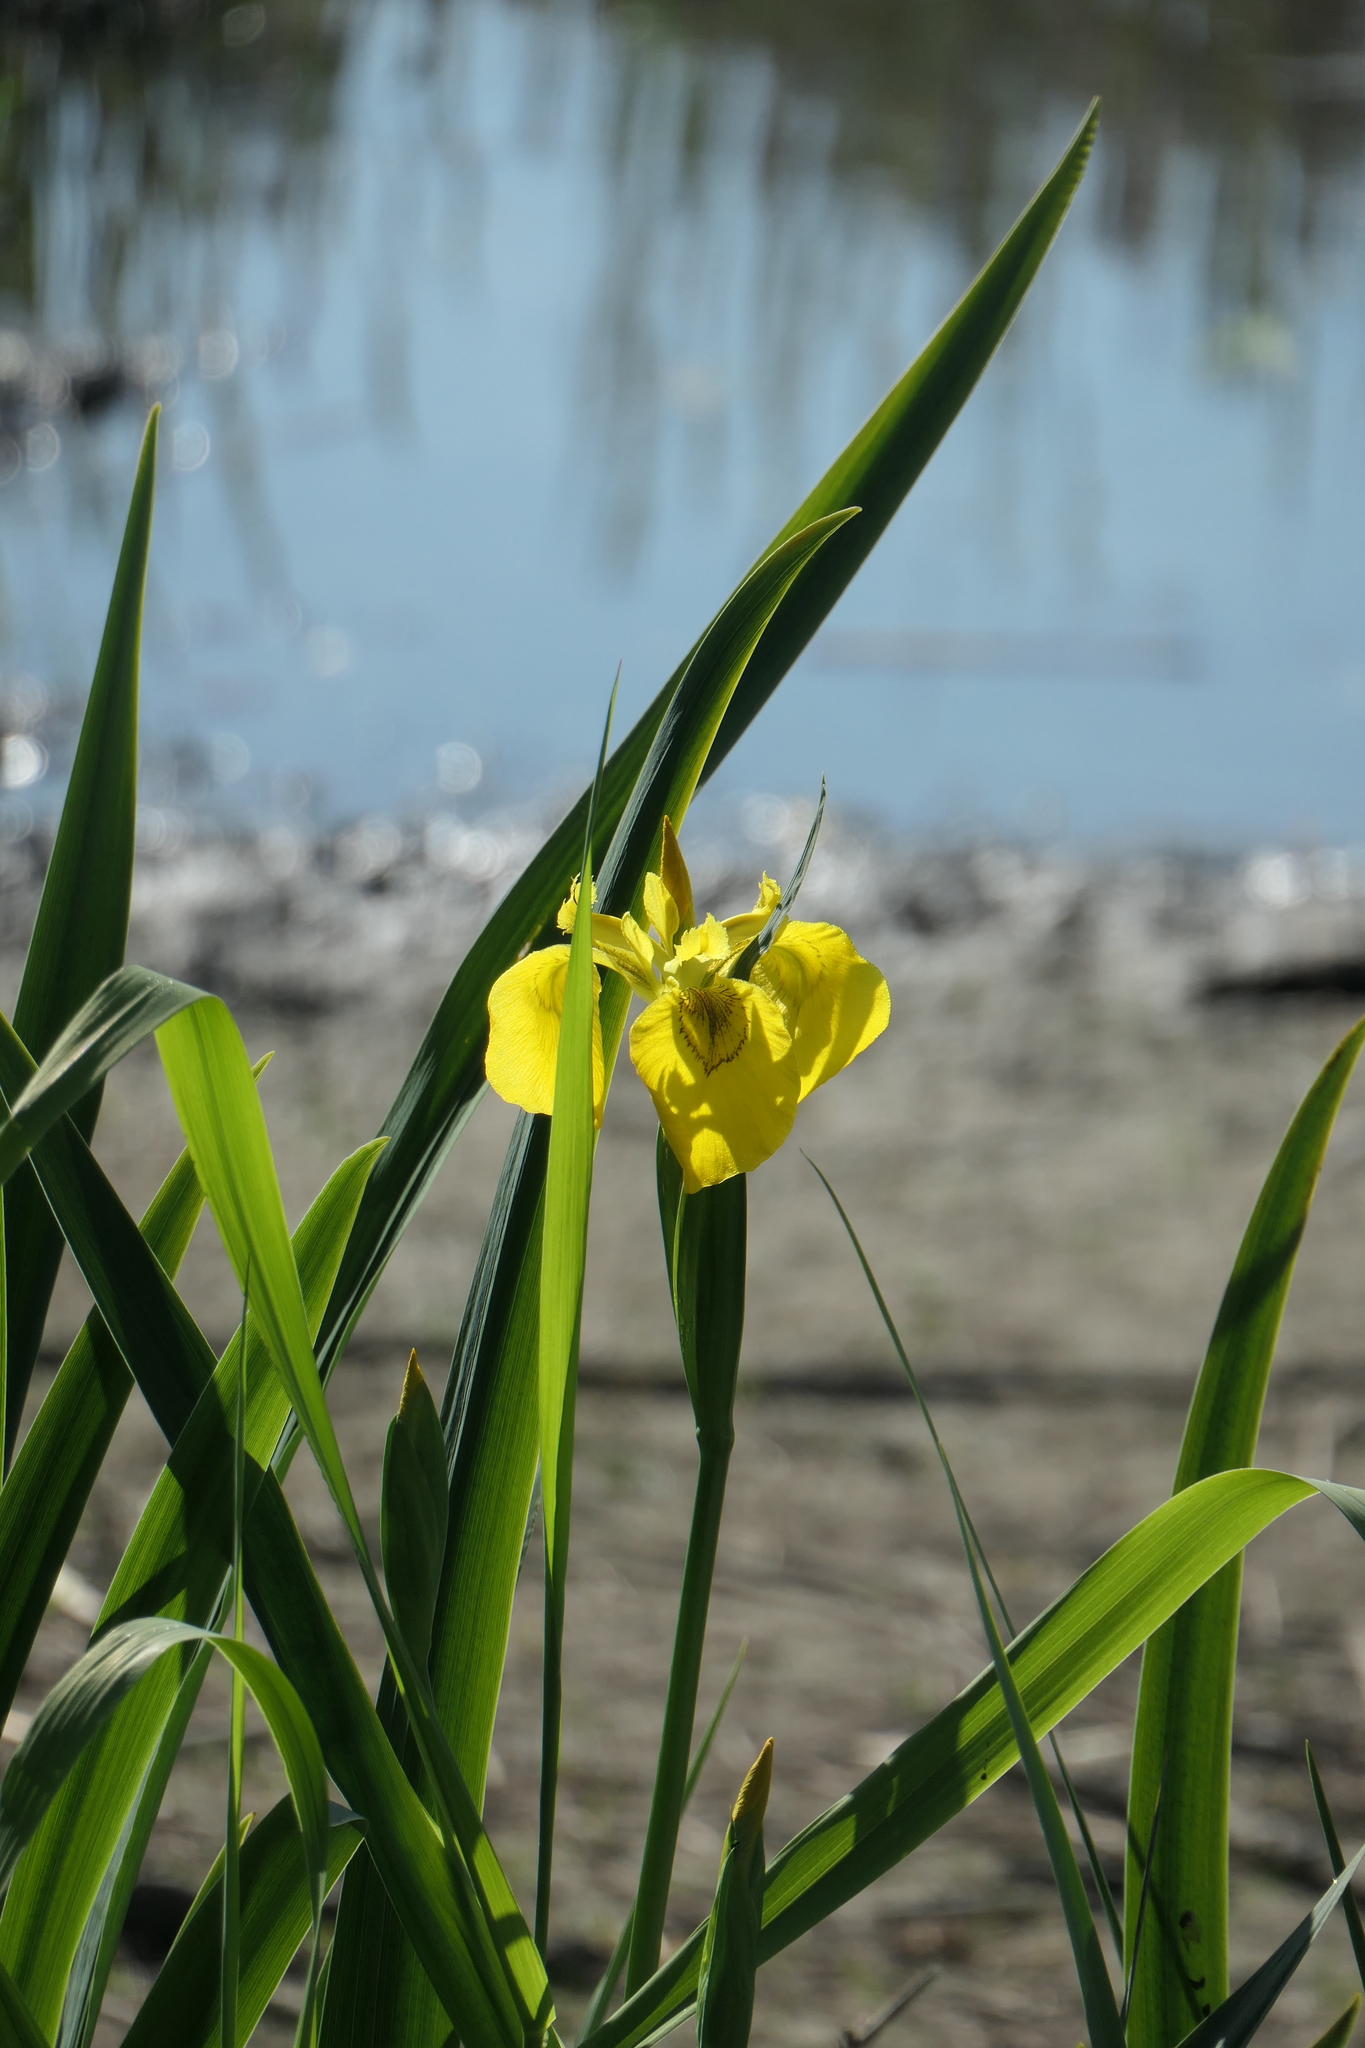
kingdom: Plantae
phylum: Tracheophyta
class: Liliopsida
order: Asparagales
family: Iridaceae
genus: Iris
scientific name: Iris pseudacorus
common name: Yellow flag
